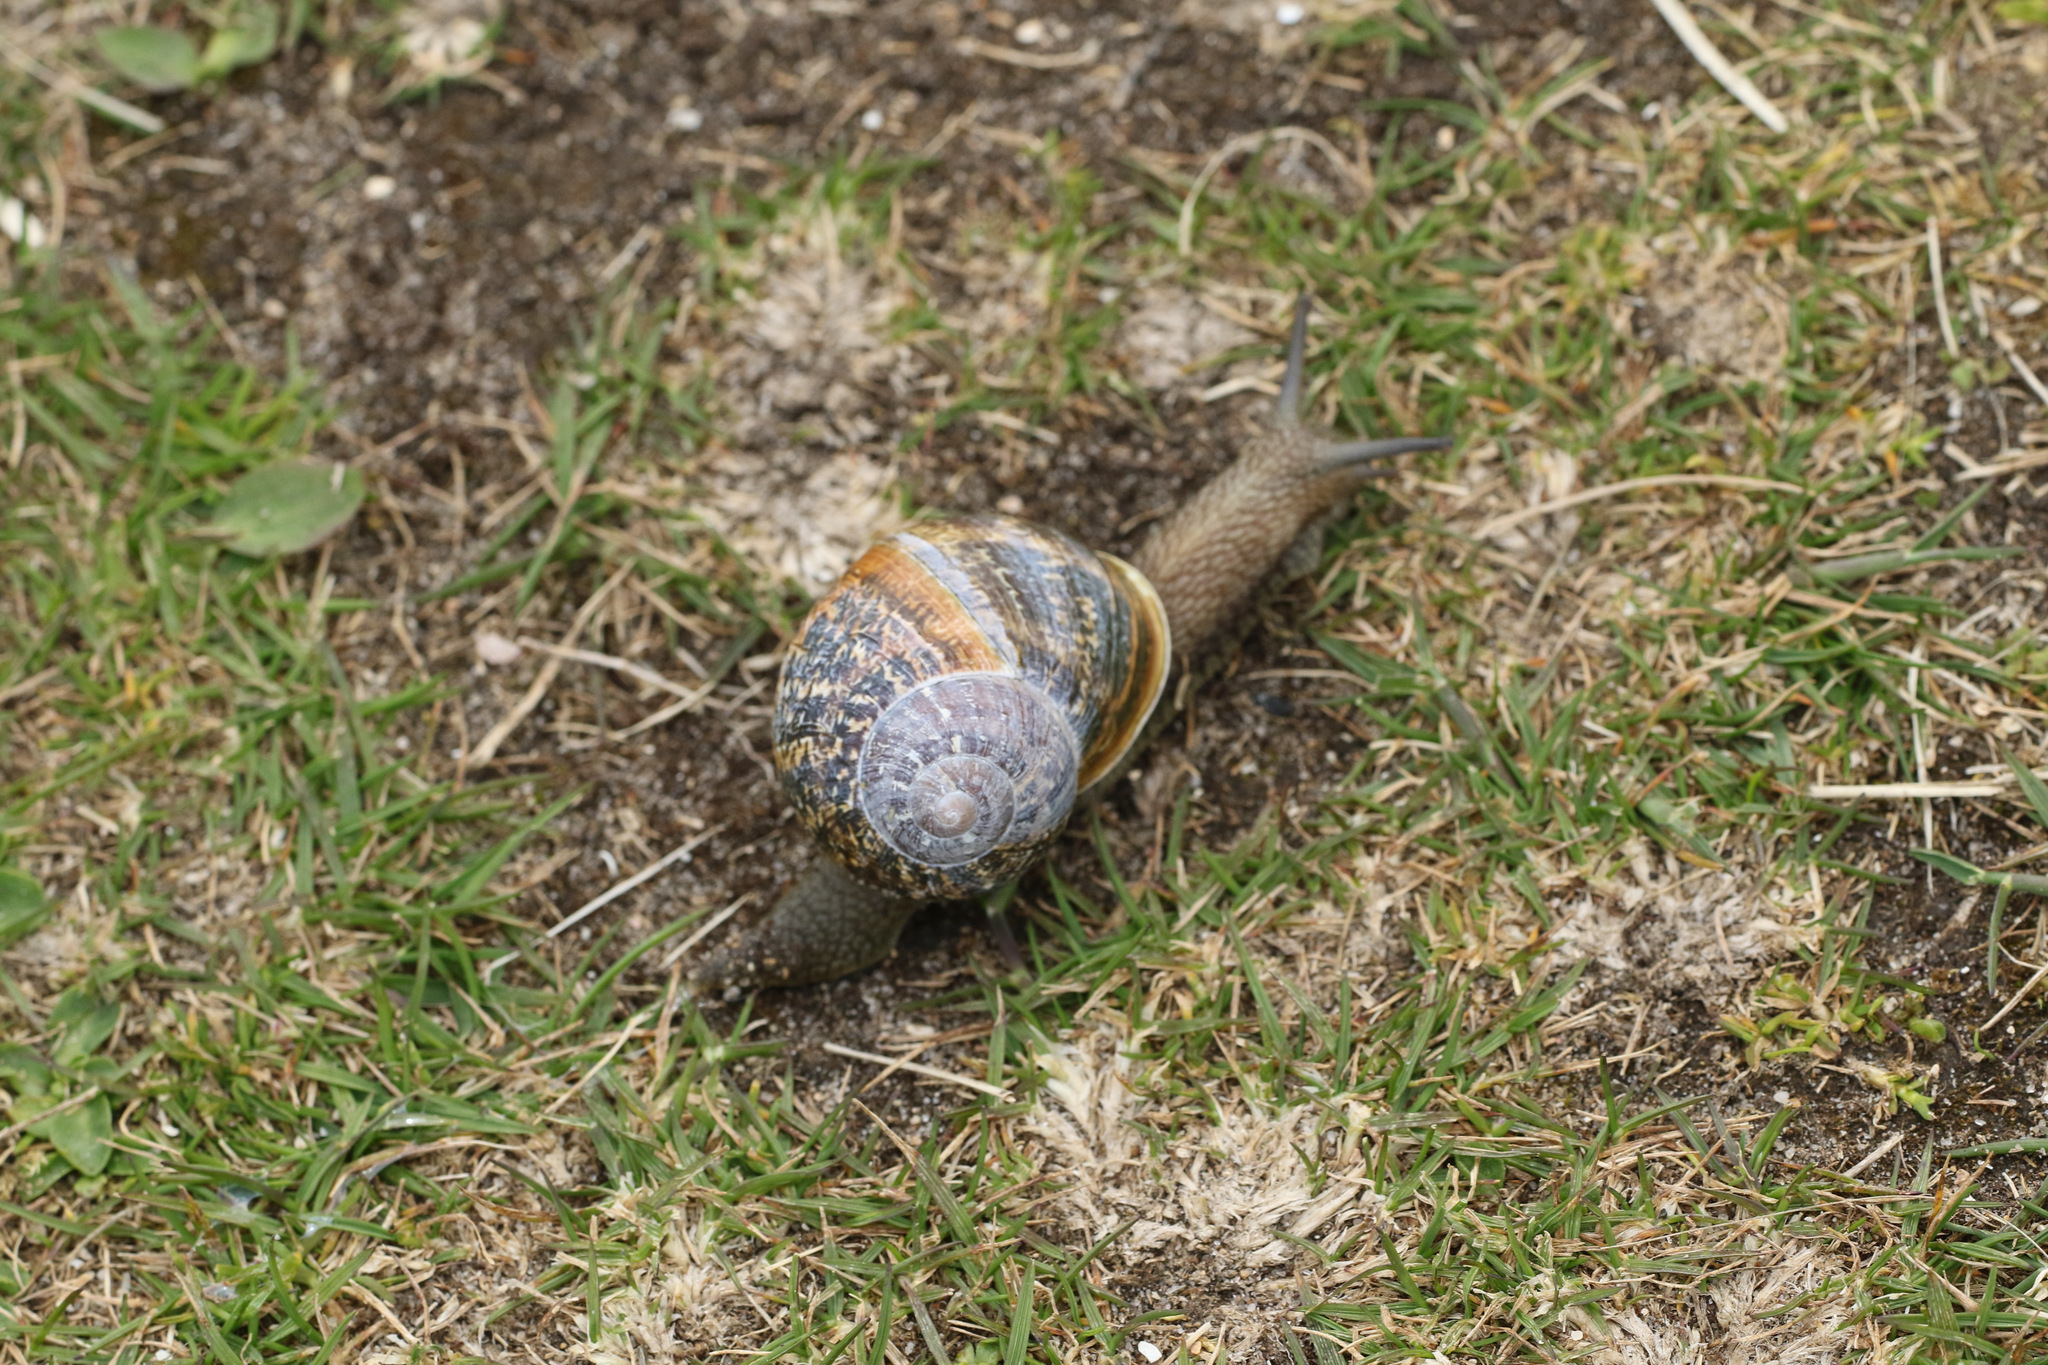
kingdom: Animalia
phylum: Mollusca
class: Gastropoda
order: Stylommatophora
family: Helicidae
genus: Cornu
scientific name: Cornu aspersum
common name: Brown garden snail
